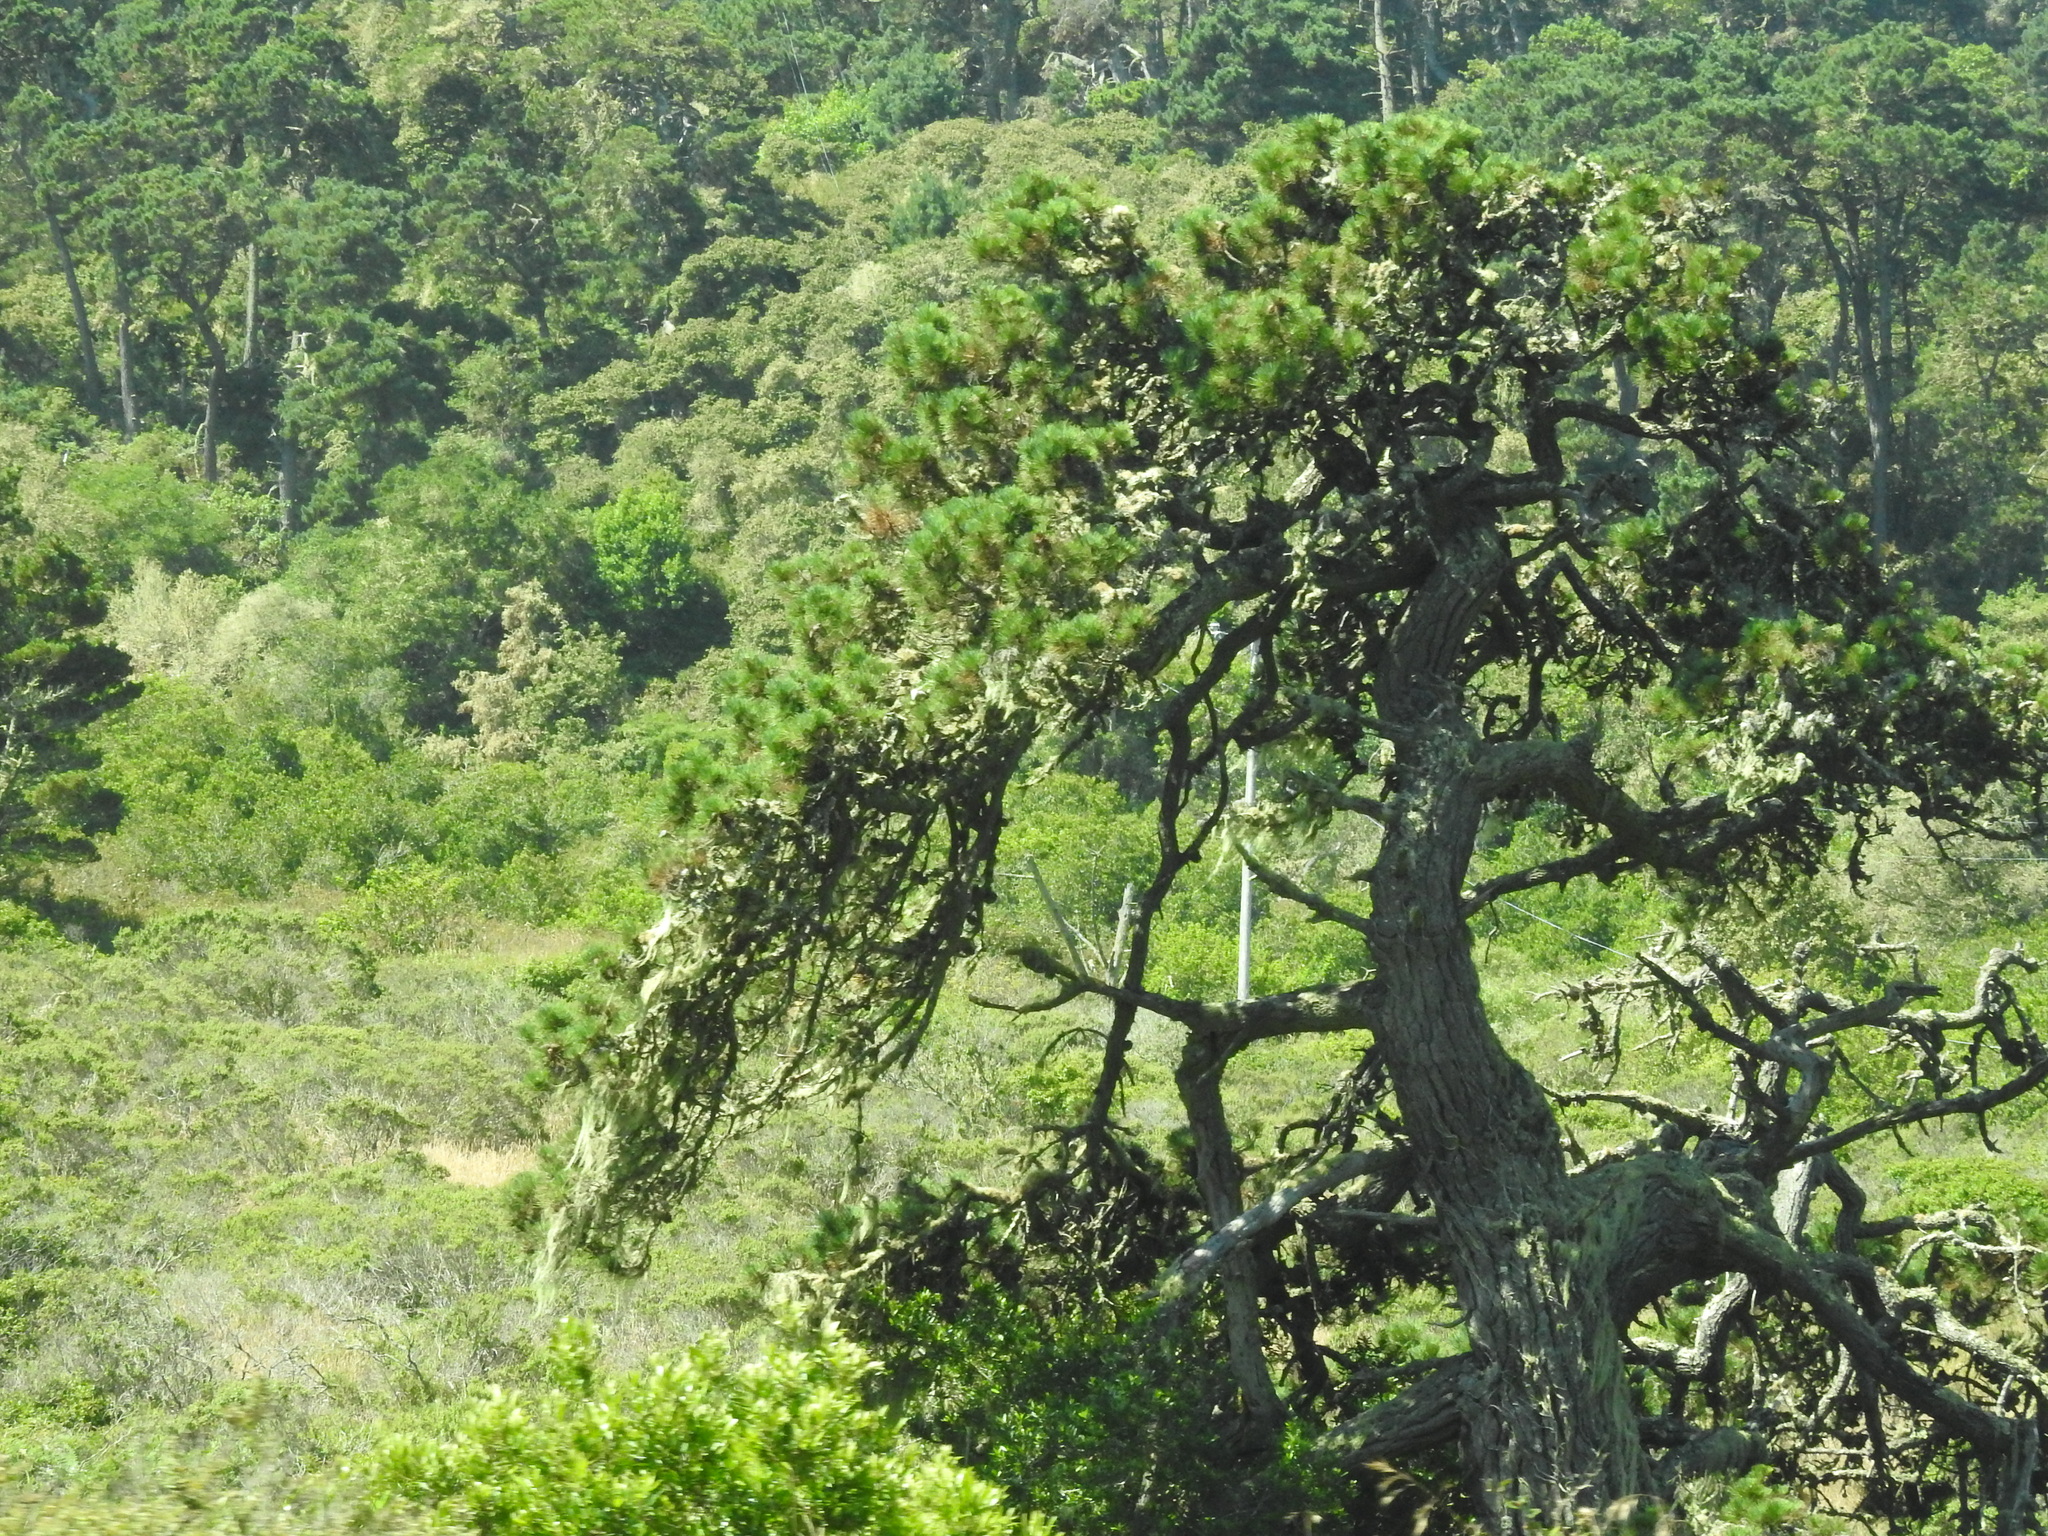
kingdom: Plantae
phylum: Tracheophyta
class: Pinopsida
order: Pinales
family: Pinaceae
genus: Pinus
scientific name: Pinus muricata
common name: Bishop pine
